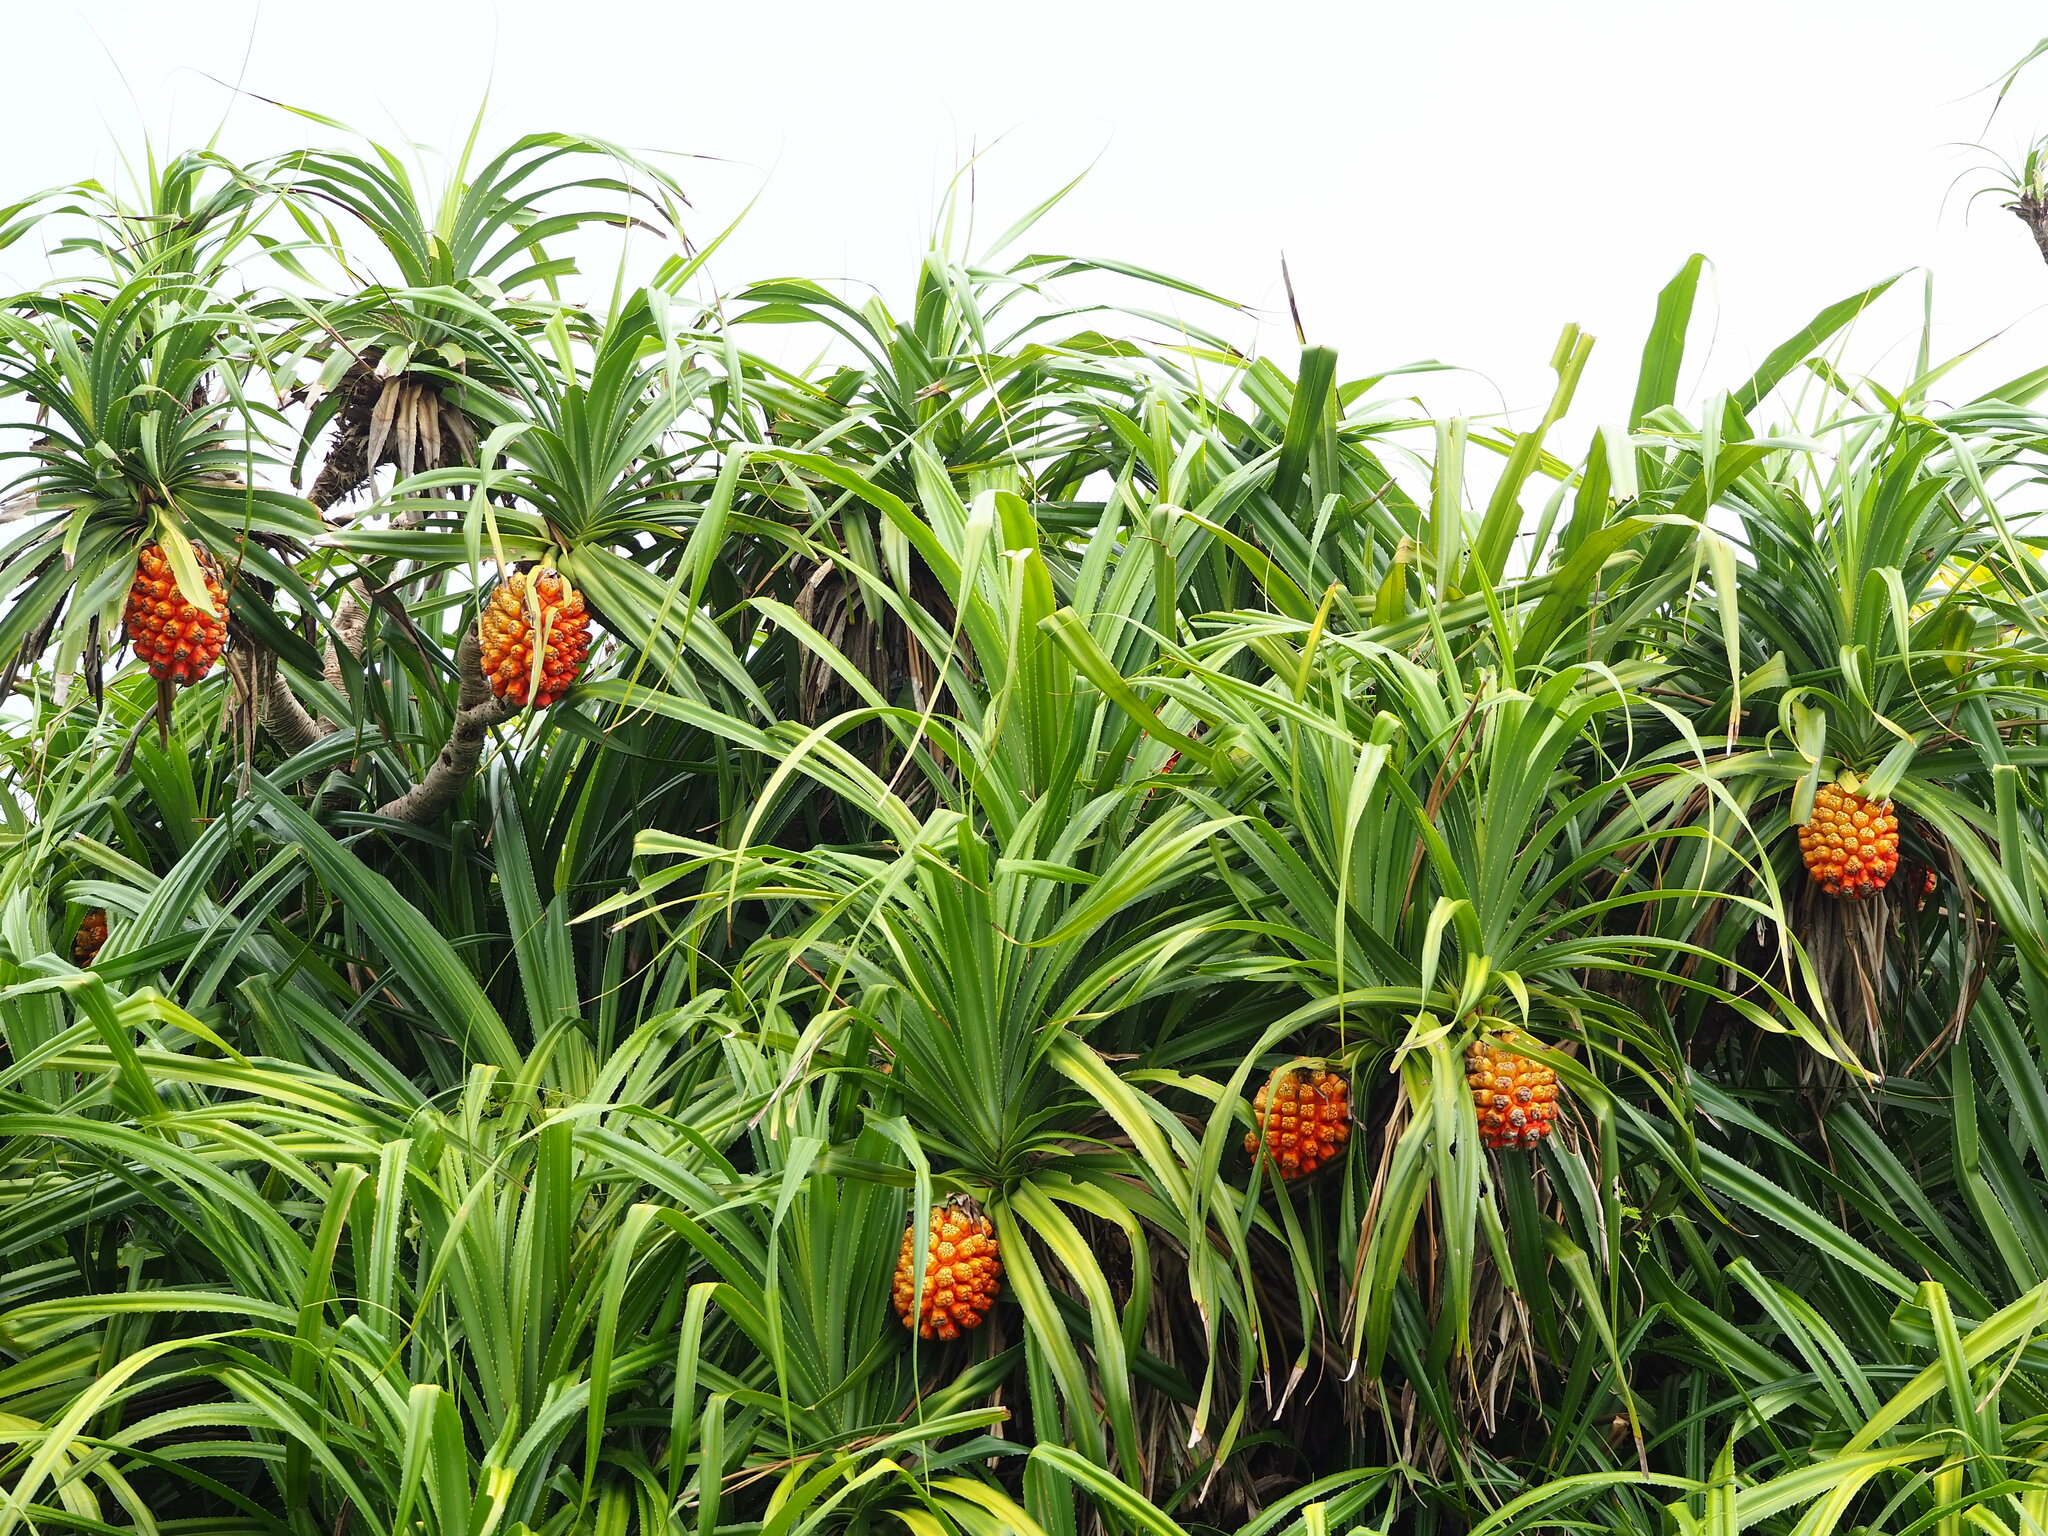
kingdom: Plantae
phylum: Tracheophyta
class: Liliopsida
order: Pandanales
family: Pandanaceae
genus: Pandanus
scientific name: Pandanus odorifer
